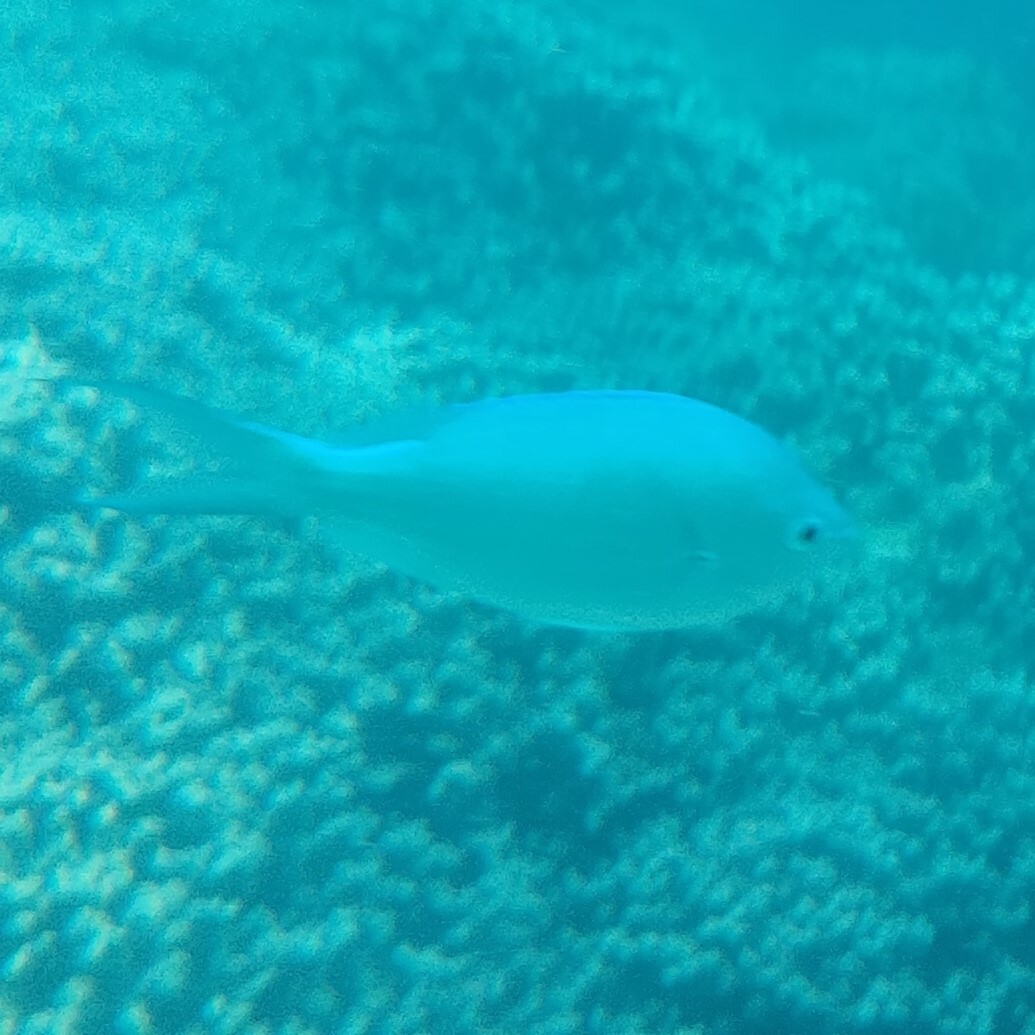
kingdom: Animalia
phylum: Chordata
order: Perciformes
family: Pomacentridae
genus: Chromis
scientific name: Chromis viridis
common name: Blue-green chromis
